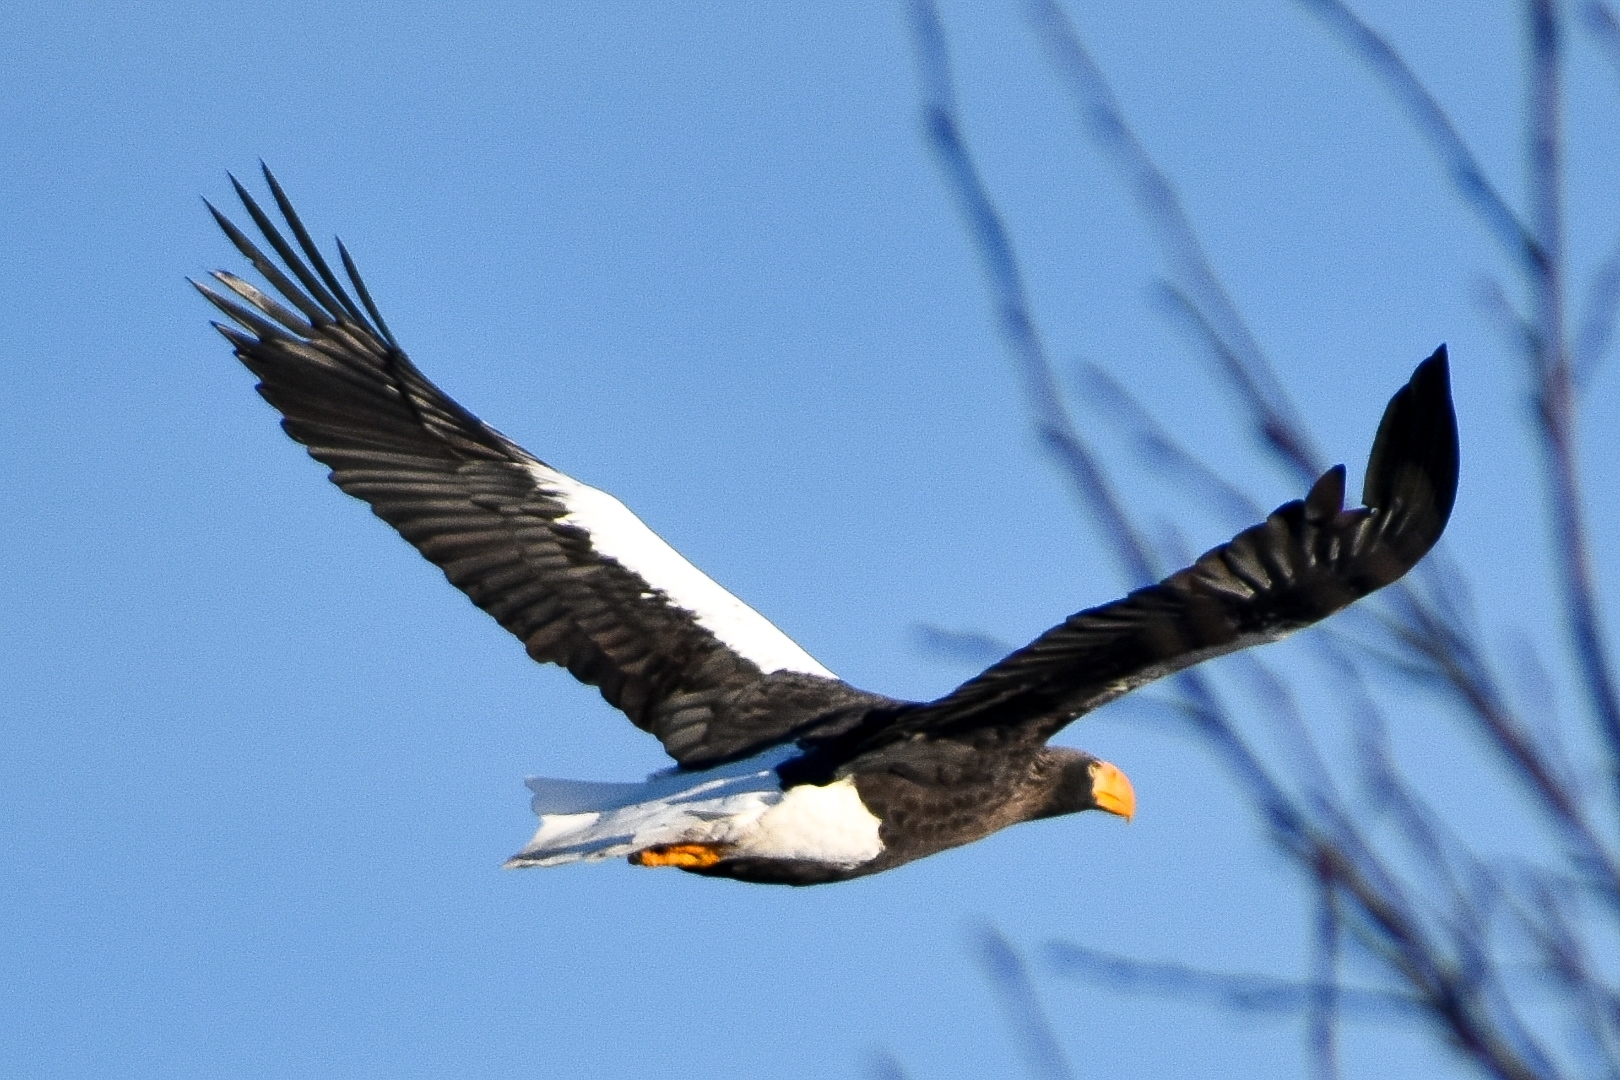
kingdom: Animalia
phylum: Chordata
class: Aves
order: Accipitriformes
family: Accipitridae
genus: Haliaeetus
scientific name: Haliaeetus pelagicus
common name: Steller's sea eagle
